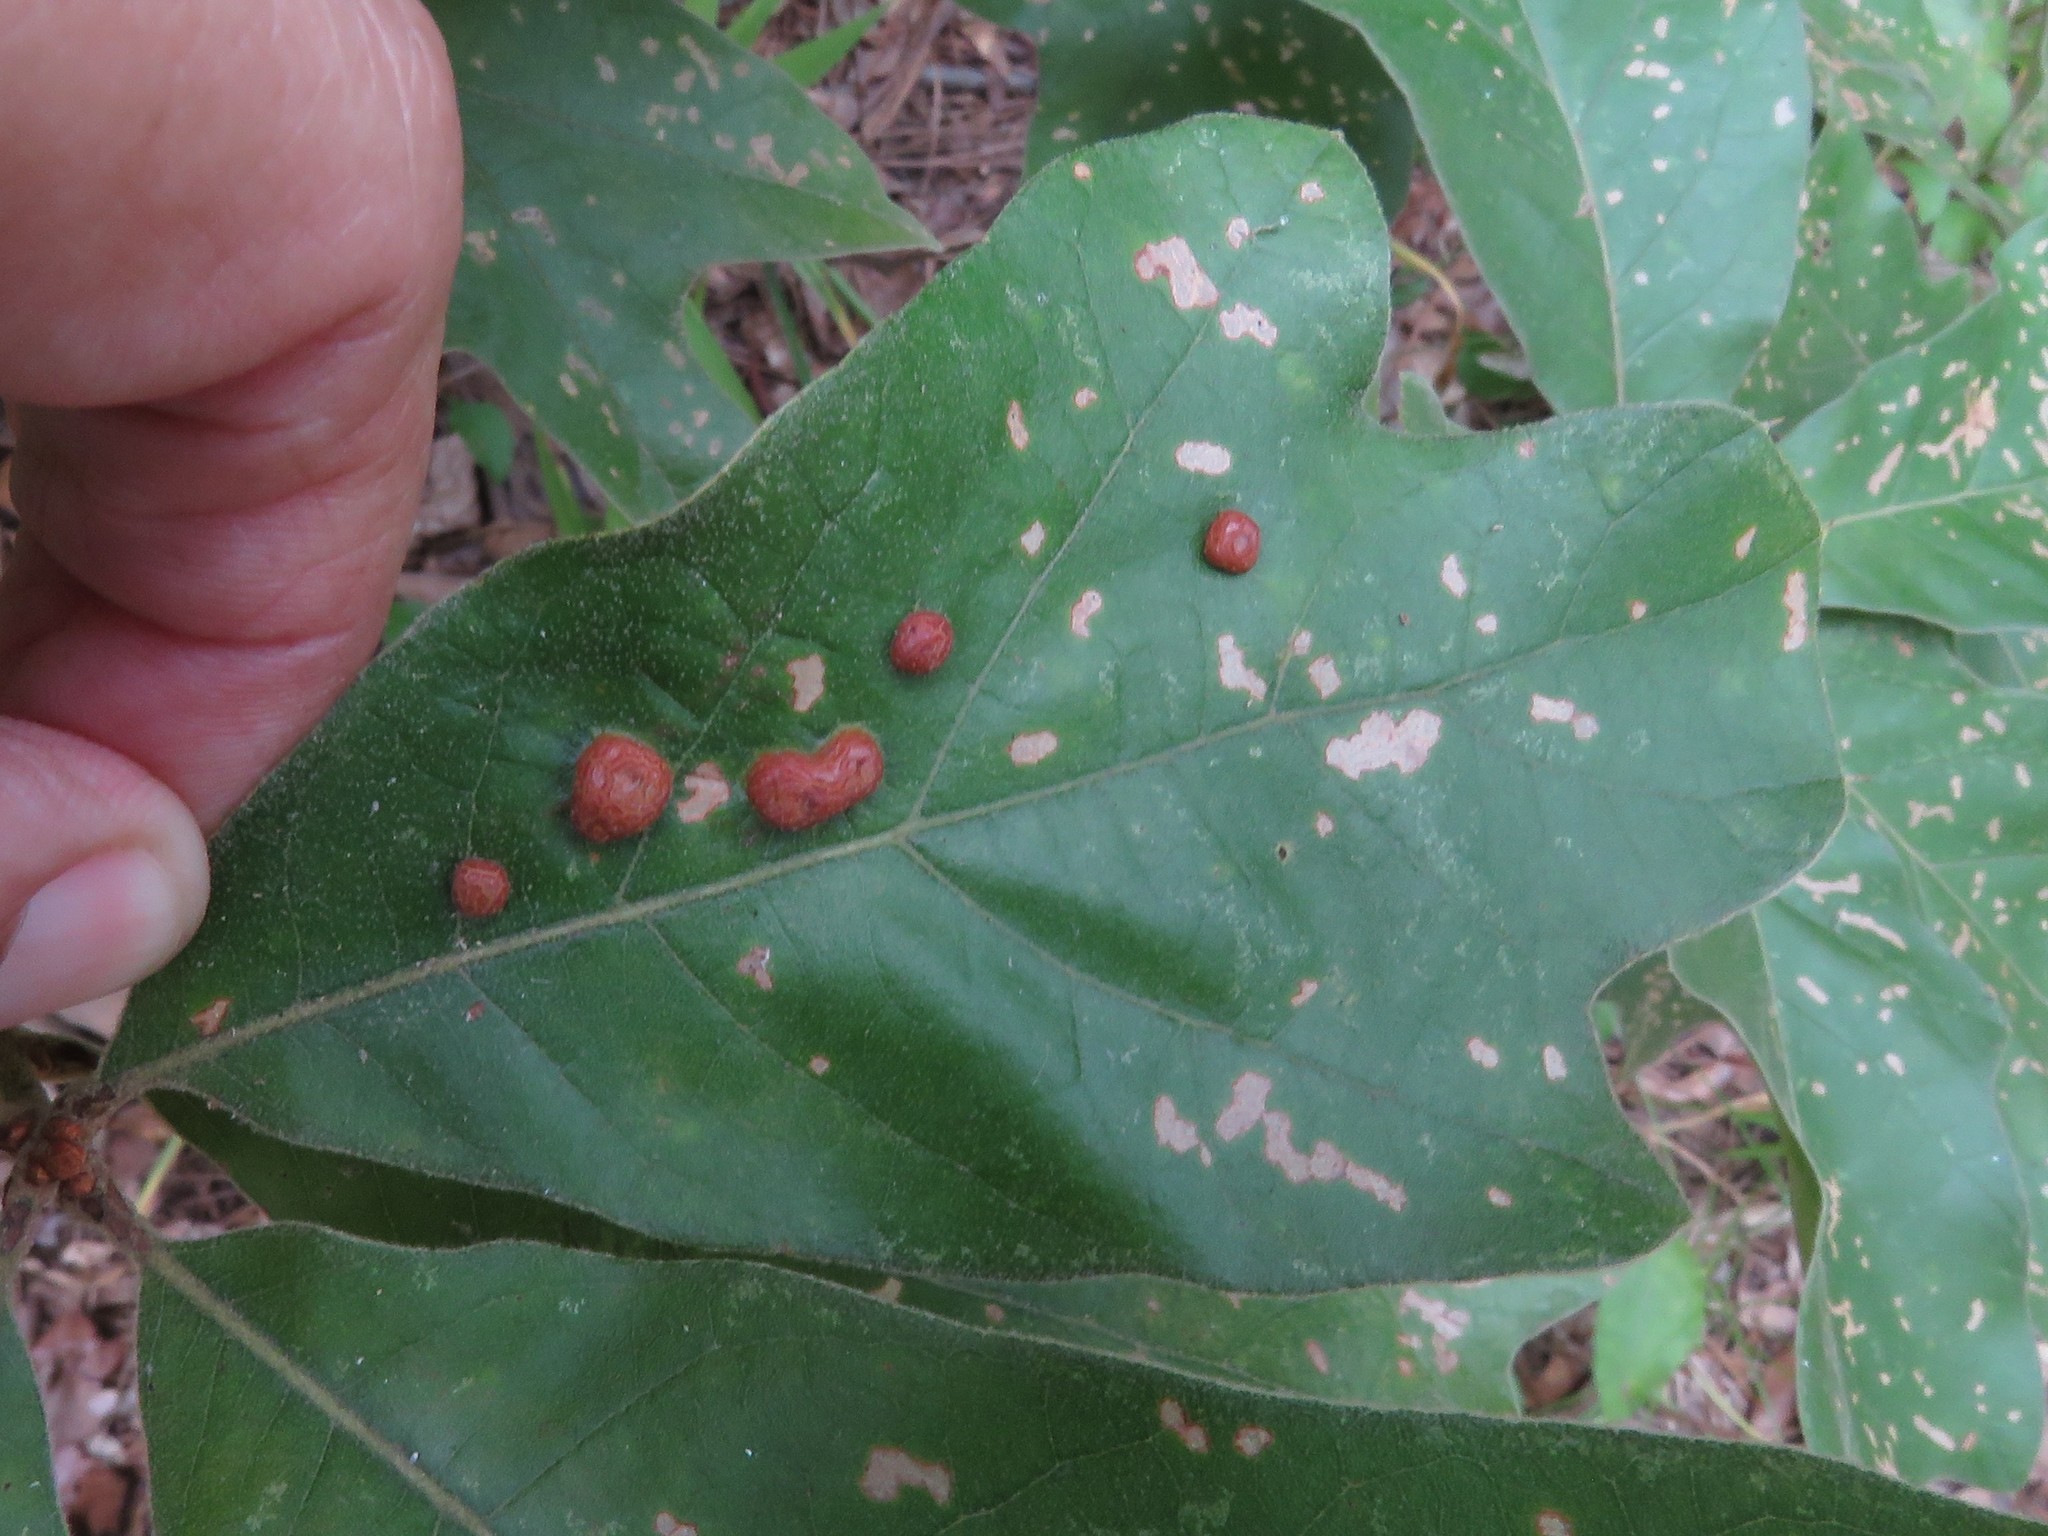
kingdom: Animalia
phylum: Arthropoda
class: Insecta
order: Diptera
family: Cecidomyiidae
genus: Polystepha
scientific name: Polystepha pilulae
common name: Oak leaf gall midge
